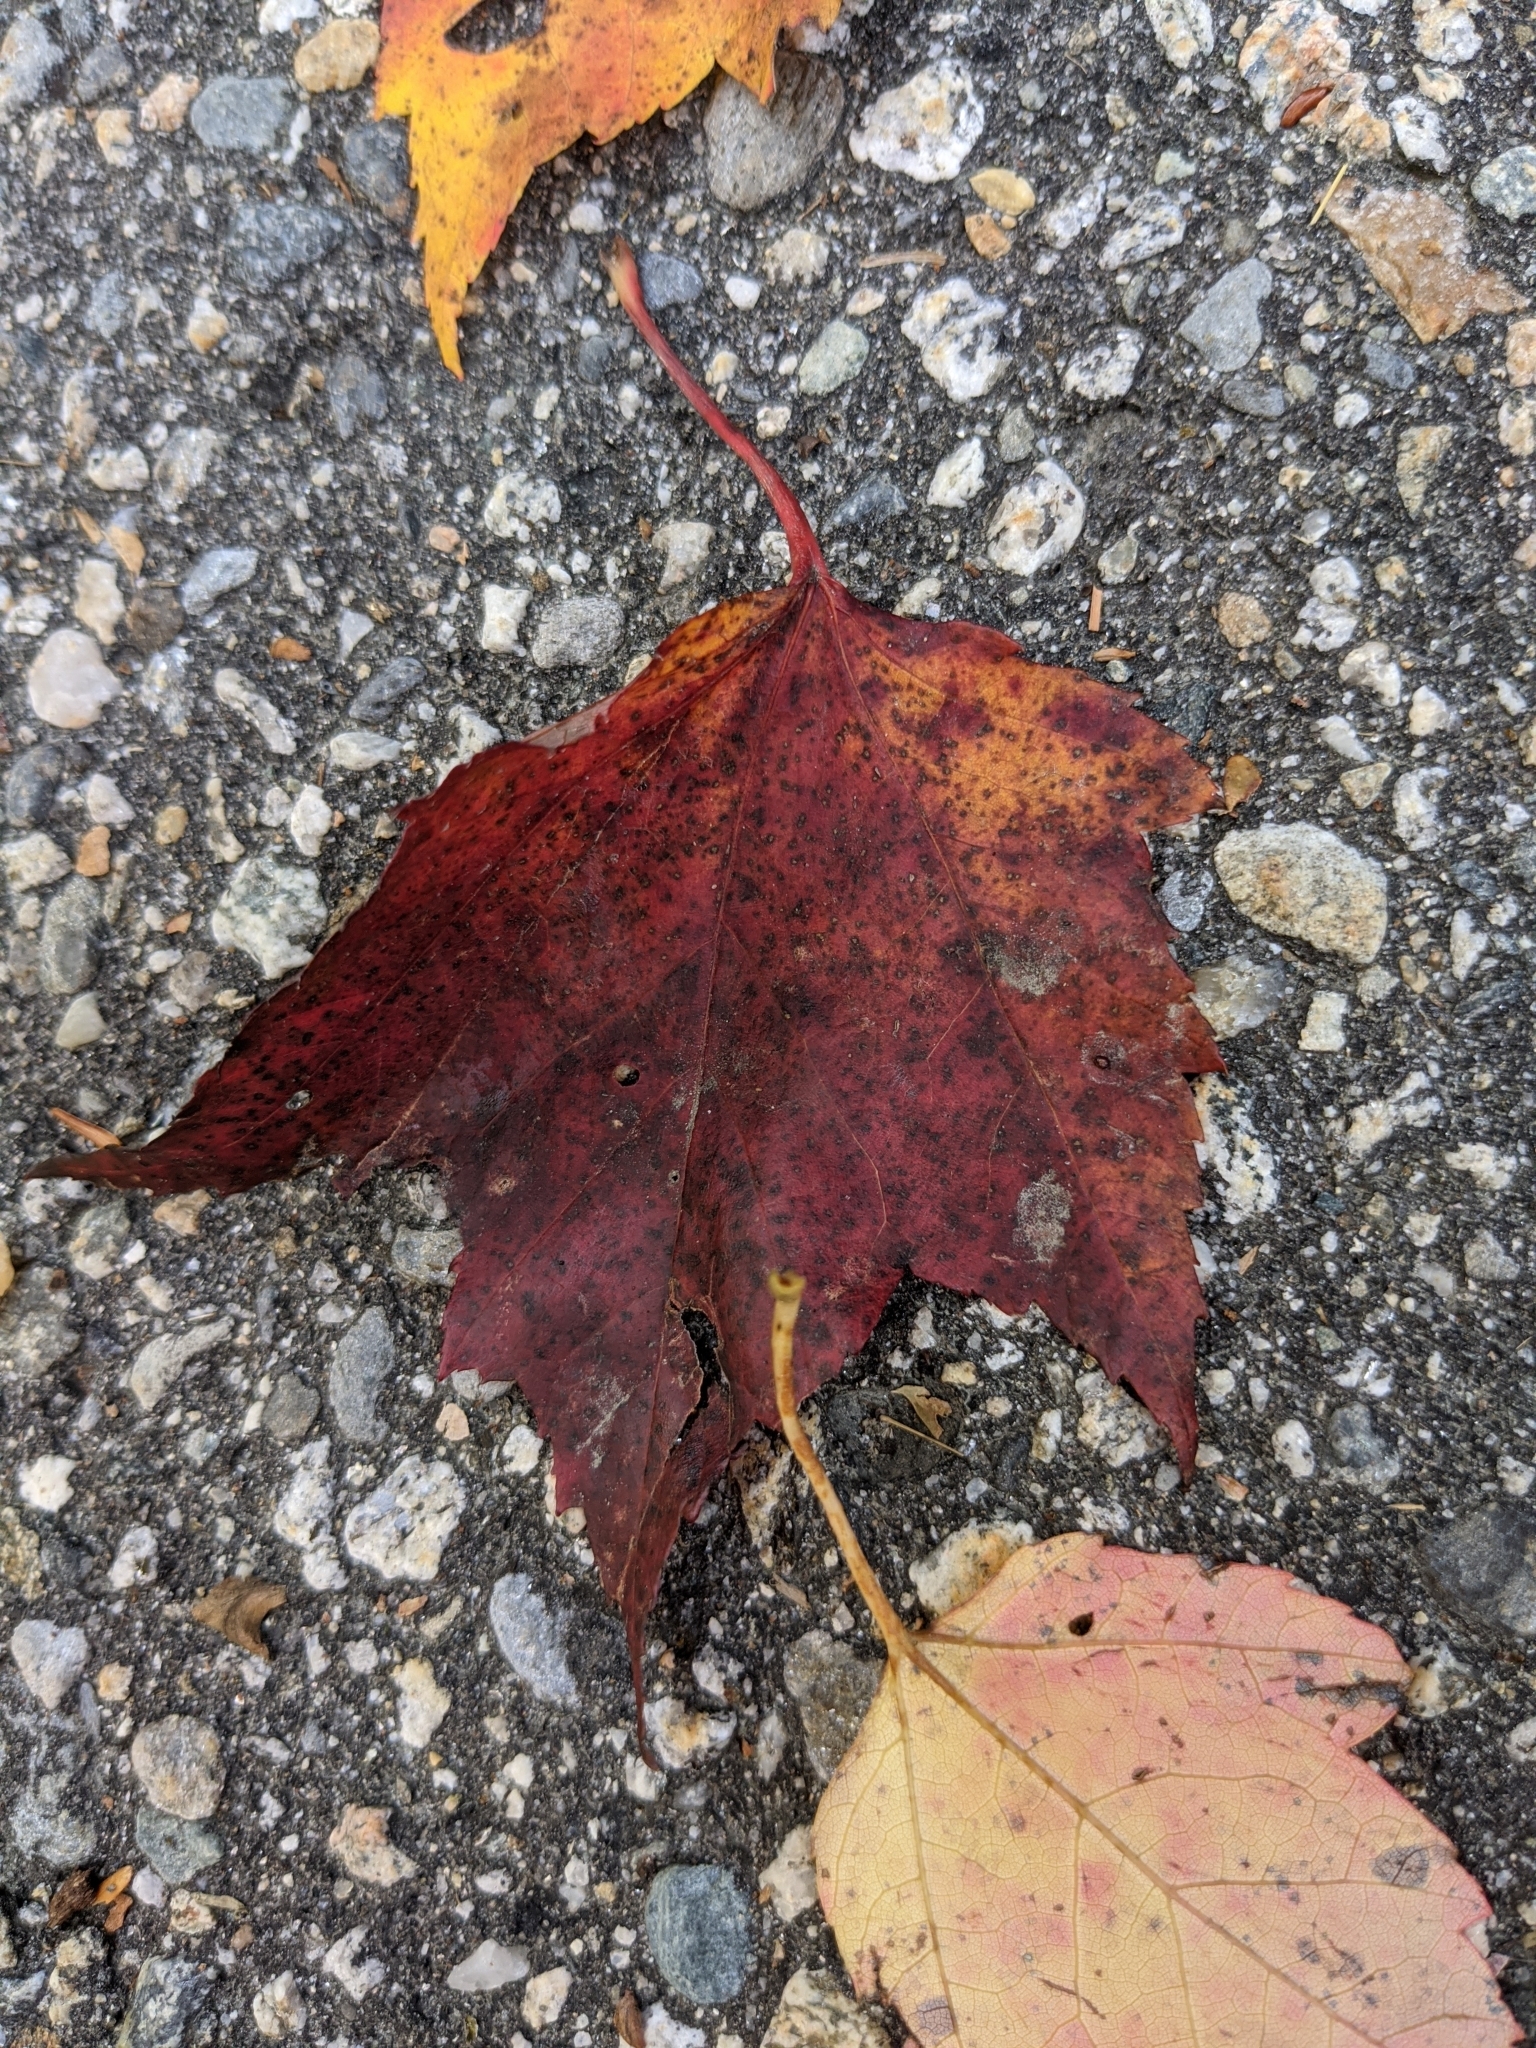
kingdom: Plantae
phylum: Tracheophyta
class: Magnoliopsida
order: Sapindales
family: Sapindaceae
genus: Acer
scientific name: Acer rubrum
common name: Red maple
